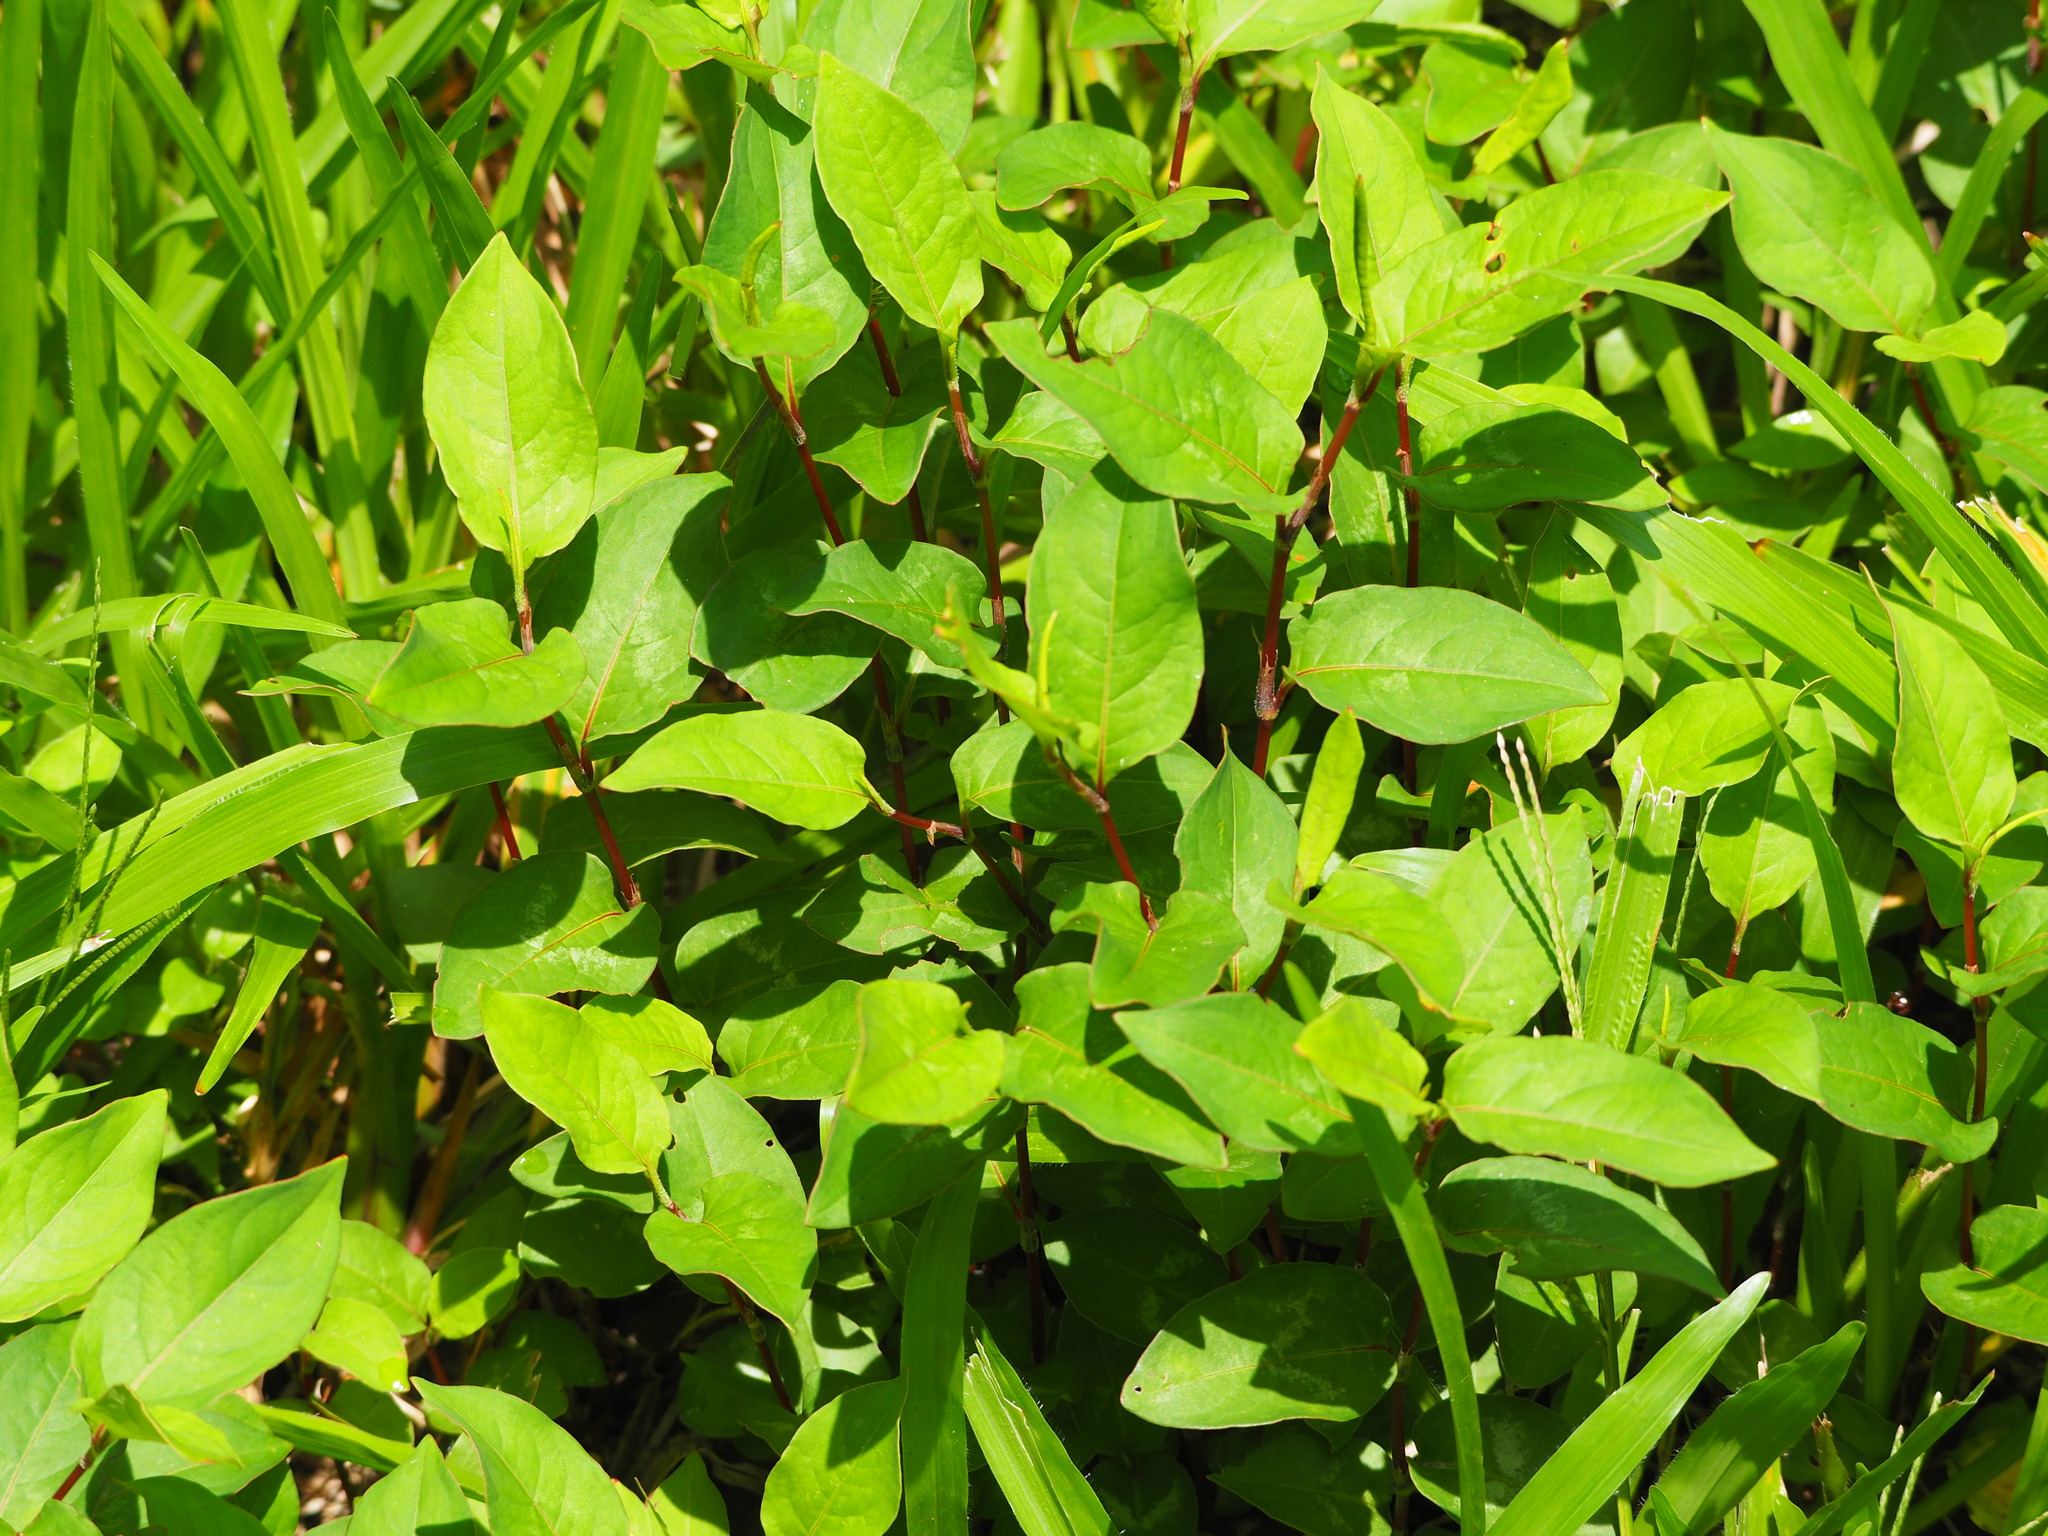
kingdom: Plantae
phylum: Tracheophyta
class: Magnoliopsida
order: Caryophyllales
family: Polygonaceae
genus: Persicaria
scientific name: Persicaria chinensis
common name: Chinese knotweed
